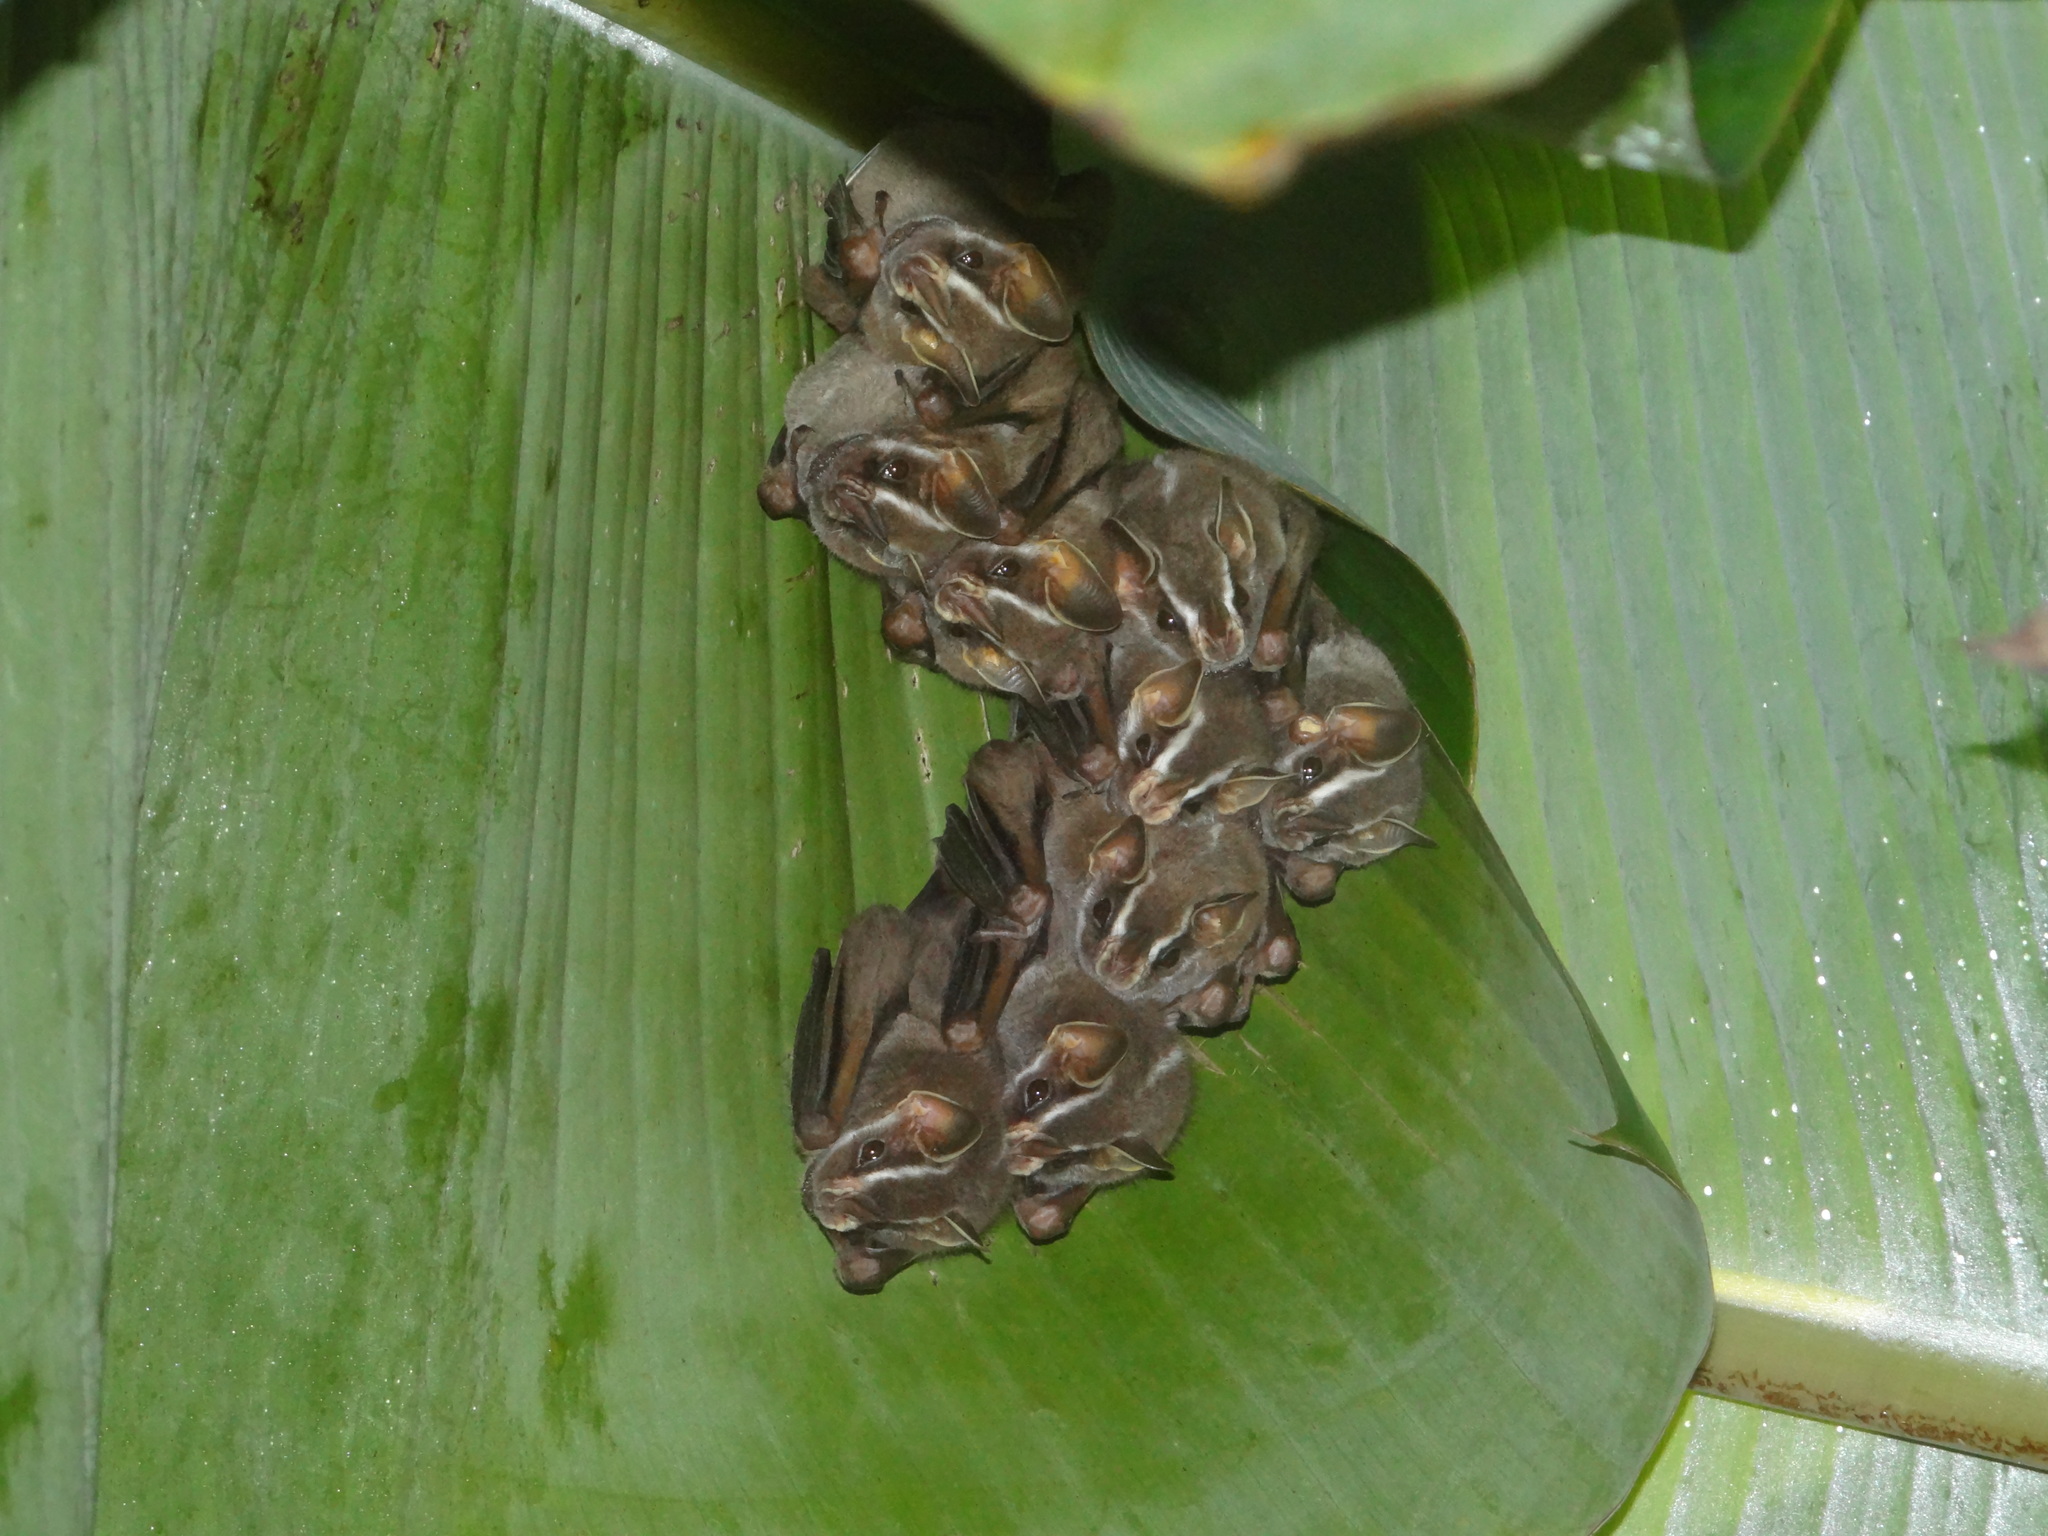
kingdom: Animalia
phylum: Chordata
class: Mammalia
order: Chiroptera
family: Phyllostomidae
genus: Uroderma
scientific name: Uroderma bilobatum
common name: Common tent-making bat
